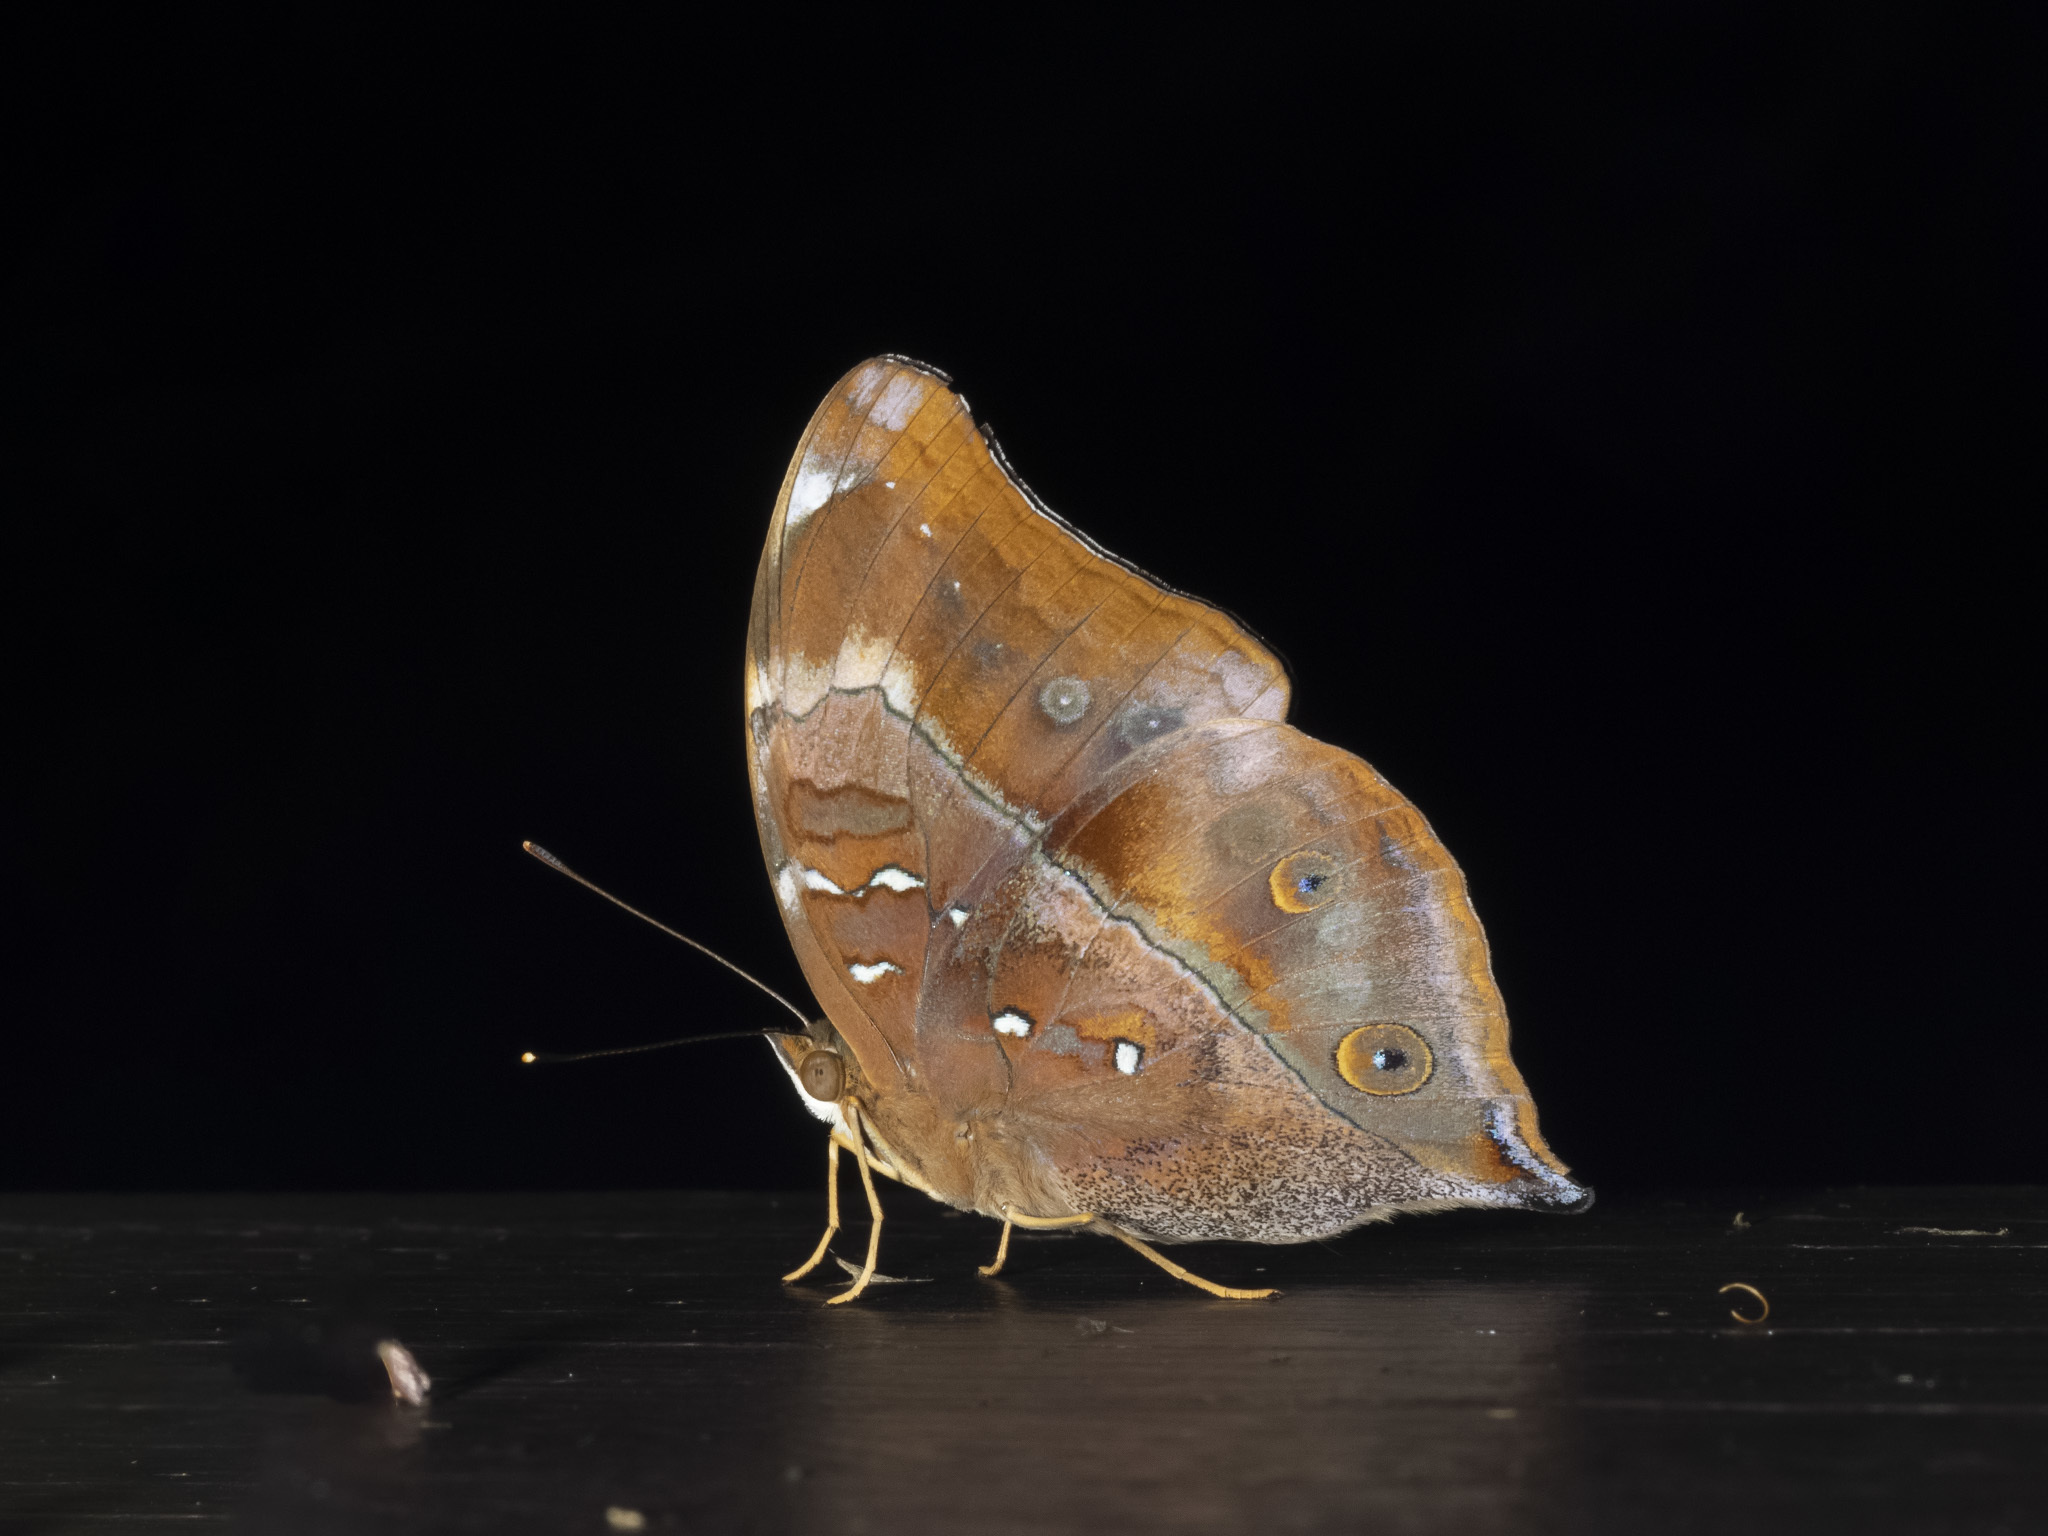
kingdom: Animalia
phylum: Arthropoda
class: Insecta
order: Lepidoptera
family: Nymphalidae
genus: Doleschallia
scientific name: Doleschallia bisaltide
